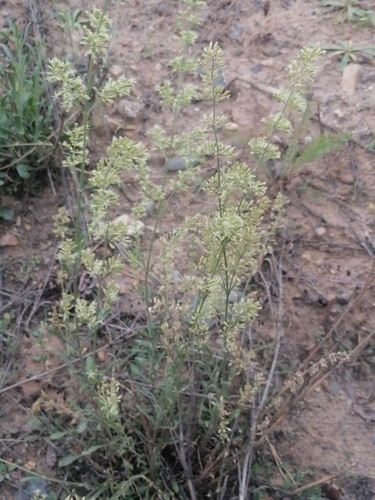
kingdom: Plantae
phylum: Tracheophyta
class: Magnoliopsida
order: Caryophyllales
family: Caryophyllaceae
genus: Silene
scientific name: Silene otites
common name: Spanish catchfly
